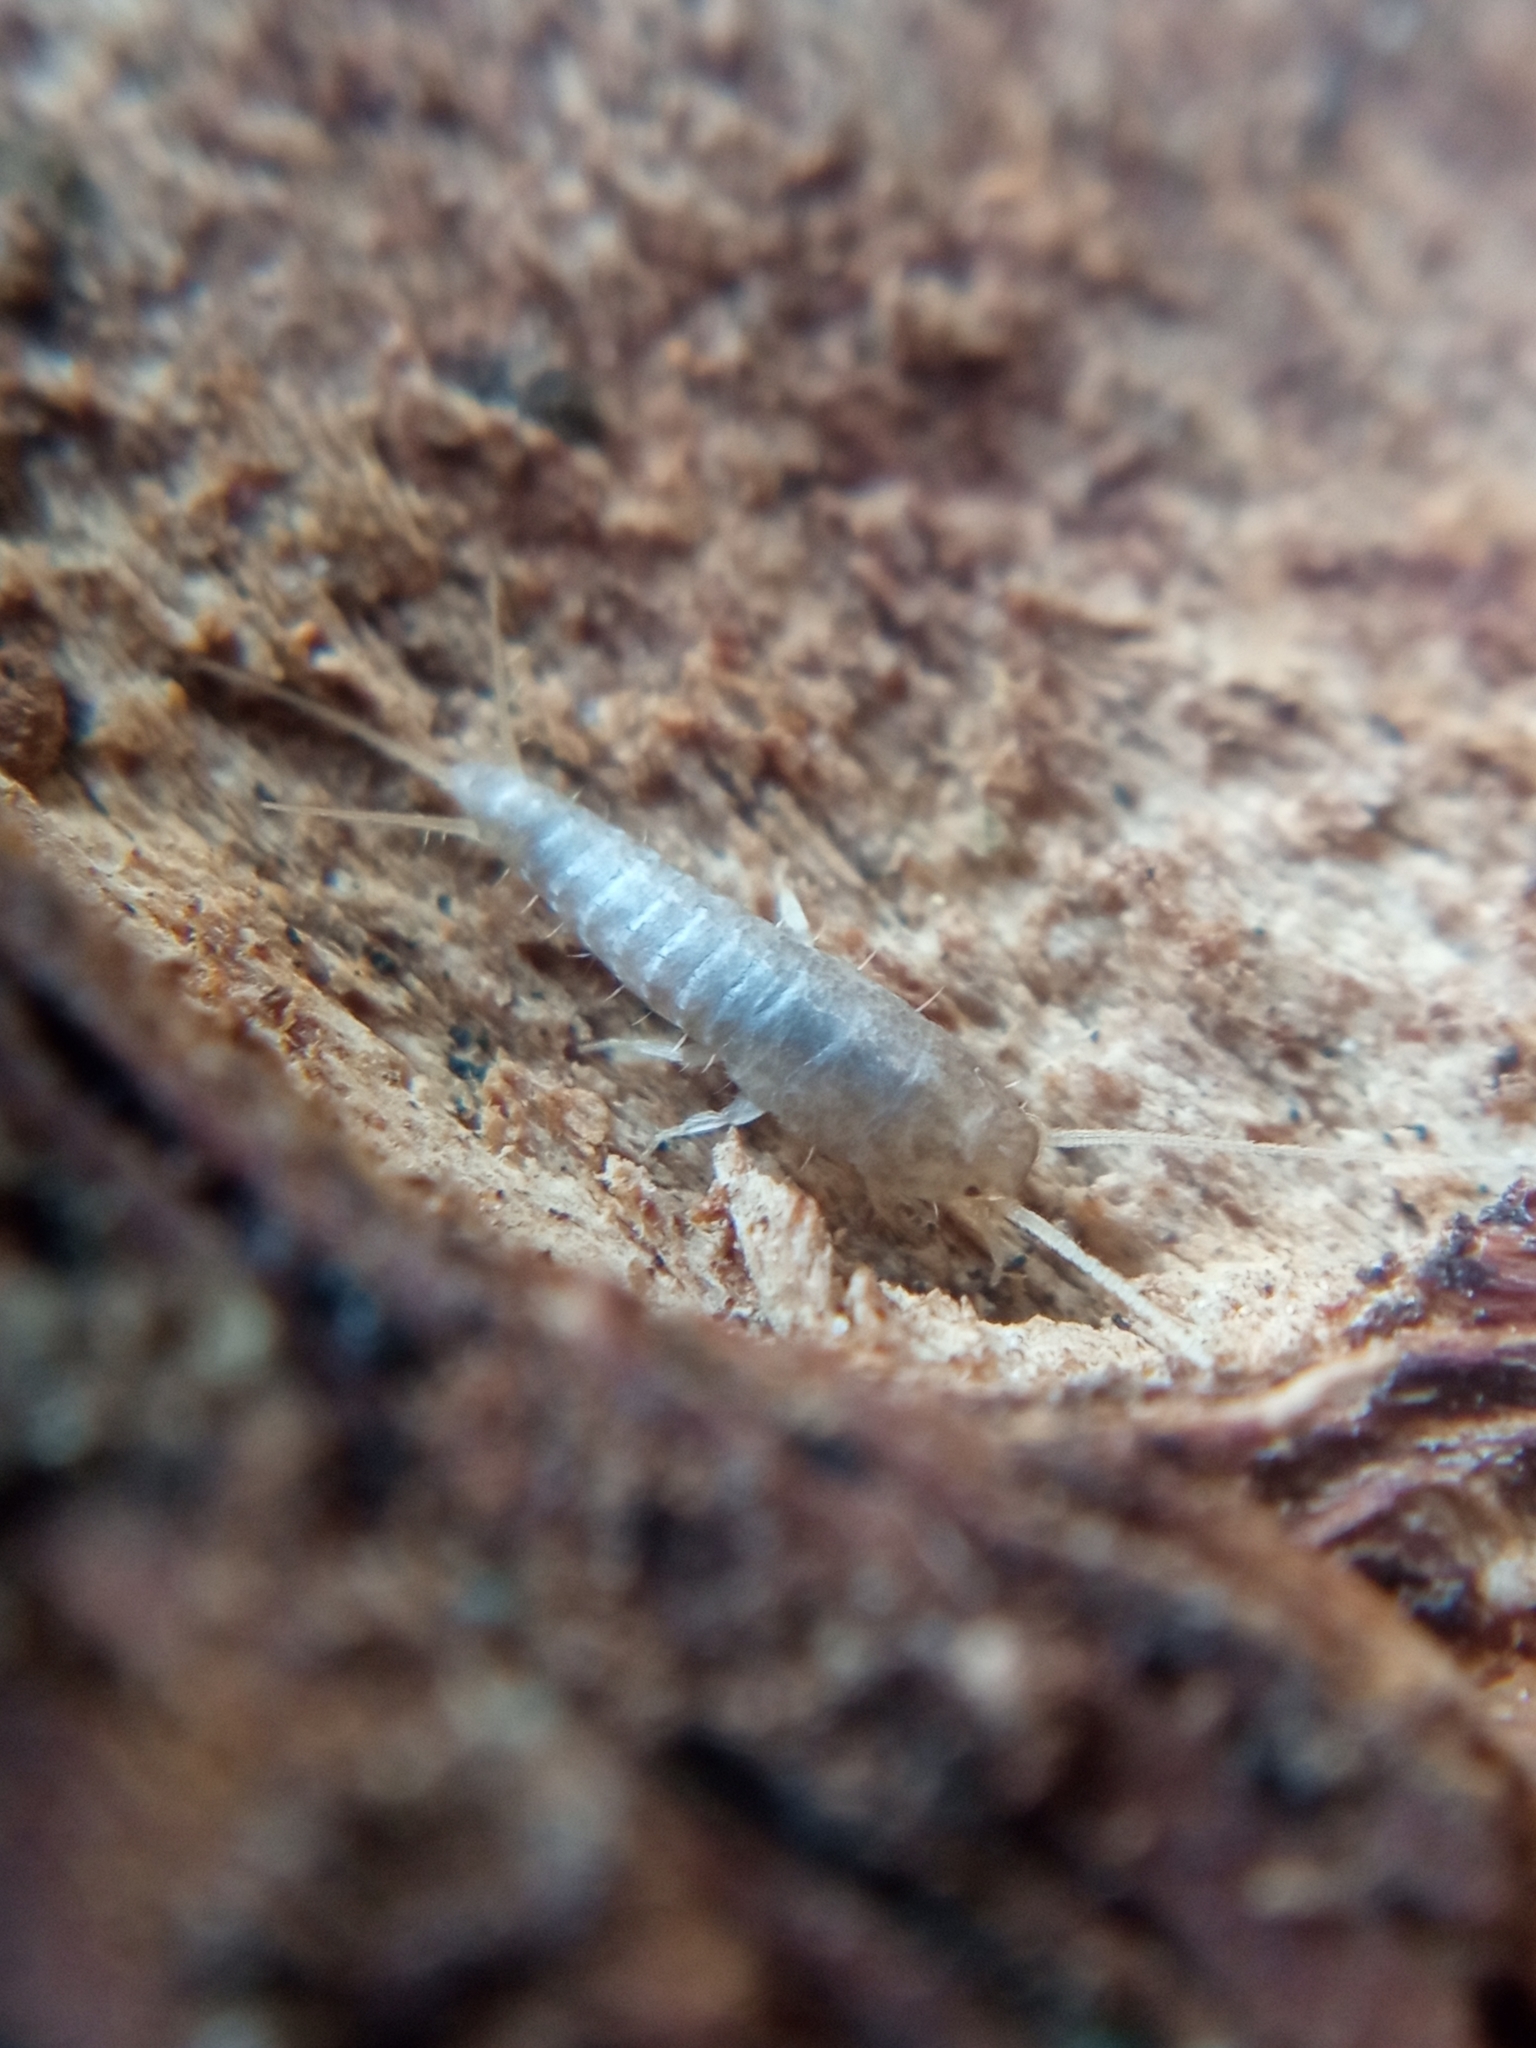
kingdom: Animalia
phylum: Arthropoda
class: Insecta
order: Zygentoma
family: Lepismatidae
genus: Lepisma
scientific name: Lepisma saccharinum
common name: Silverfish
